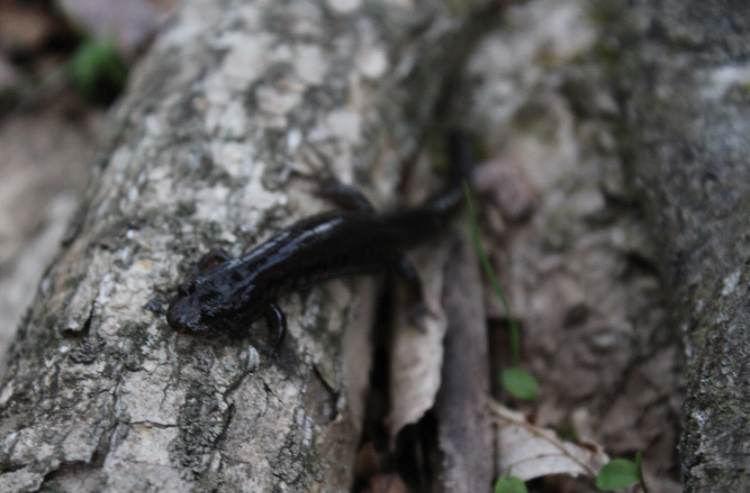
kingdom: Animalia
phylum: Chordata
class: Amphibia
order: Caudata
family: Plethodontidae
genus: Desmognathus
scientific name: Desmognathus
